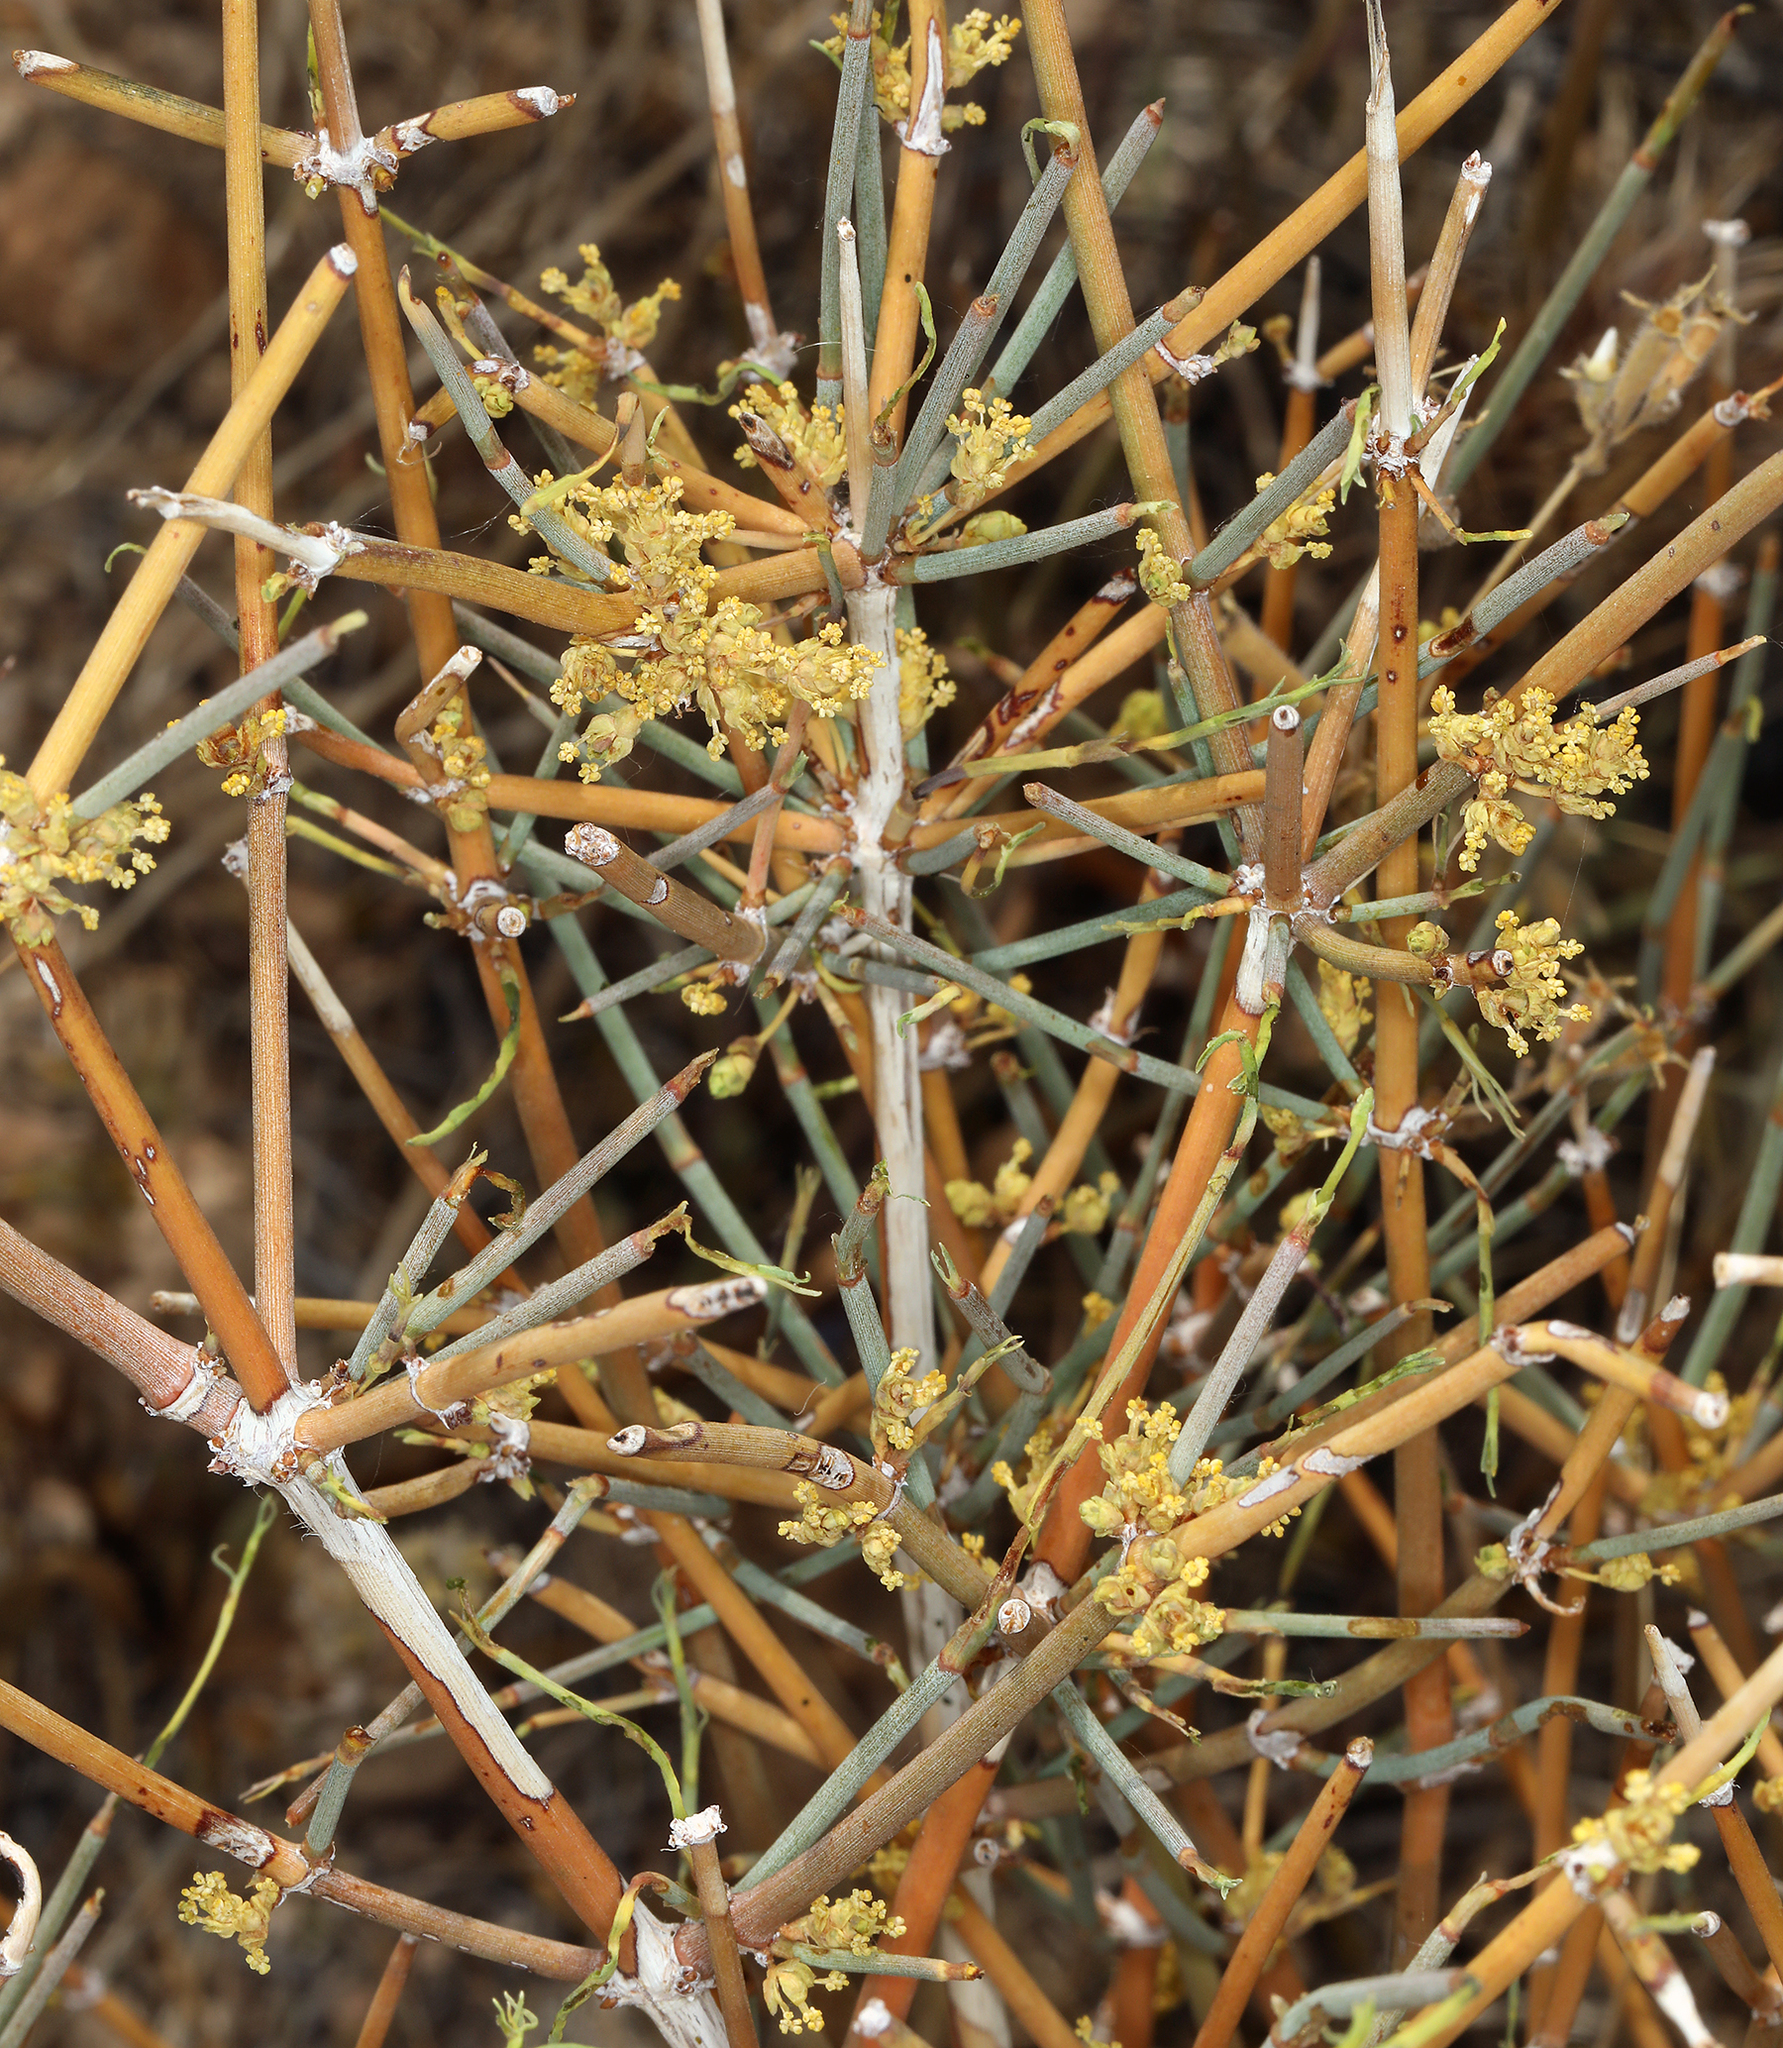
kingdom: Plantae
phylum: Tracheophyta
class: Gnetopsida
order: Ephedrales
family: Ephedraceae
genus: Ephedra
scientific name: Ephedra nevadensis
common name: Gray ephedra
